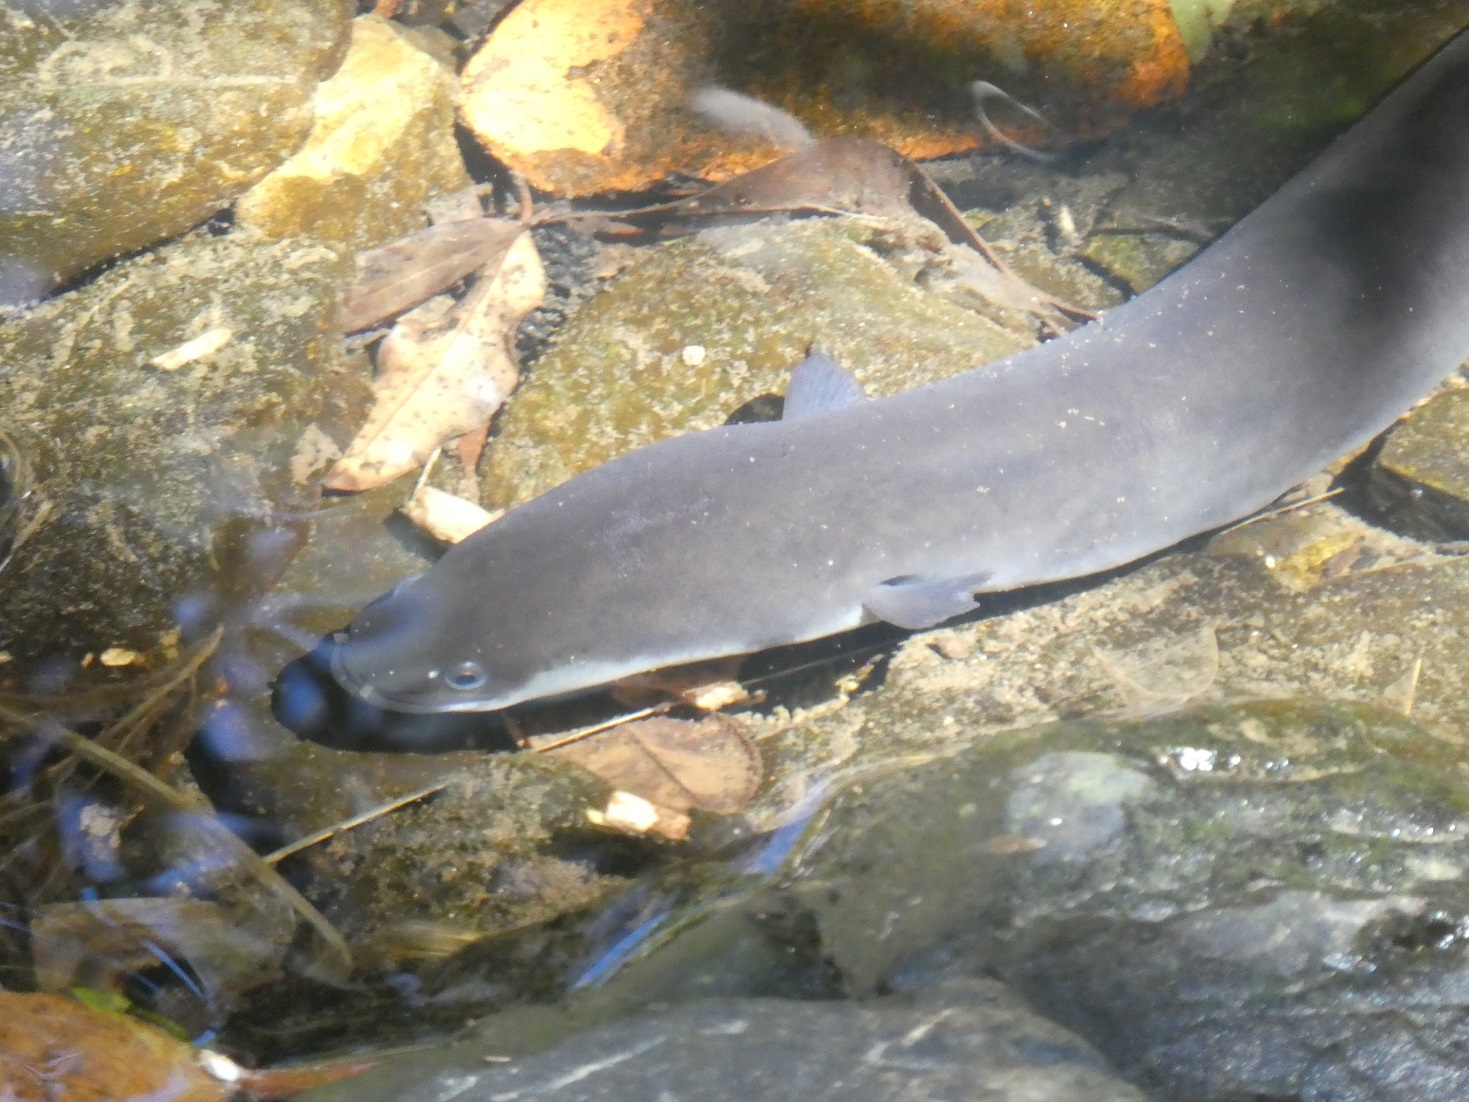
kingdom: Animalia
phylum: Chordata
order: Anguilliformes
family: Anguillidae
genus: Anguilla
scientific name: Anguilla dieffenbachii
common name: New zealand longfin eel
